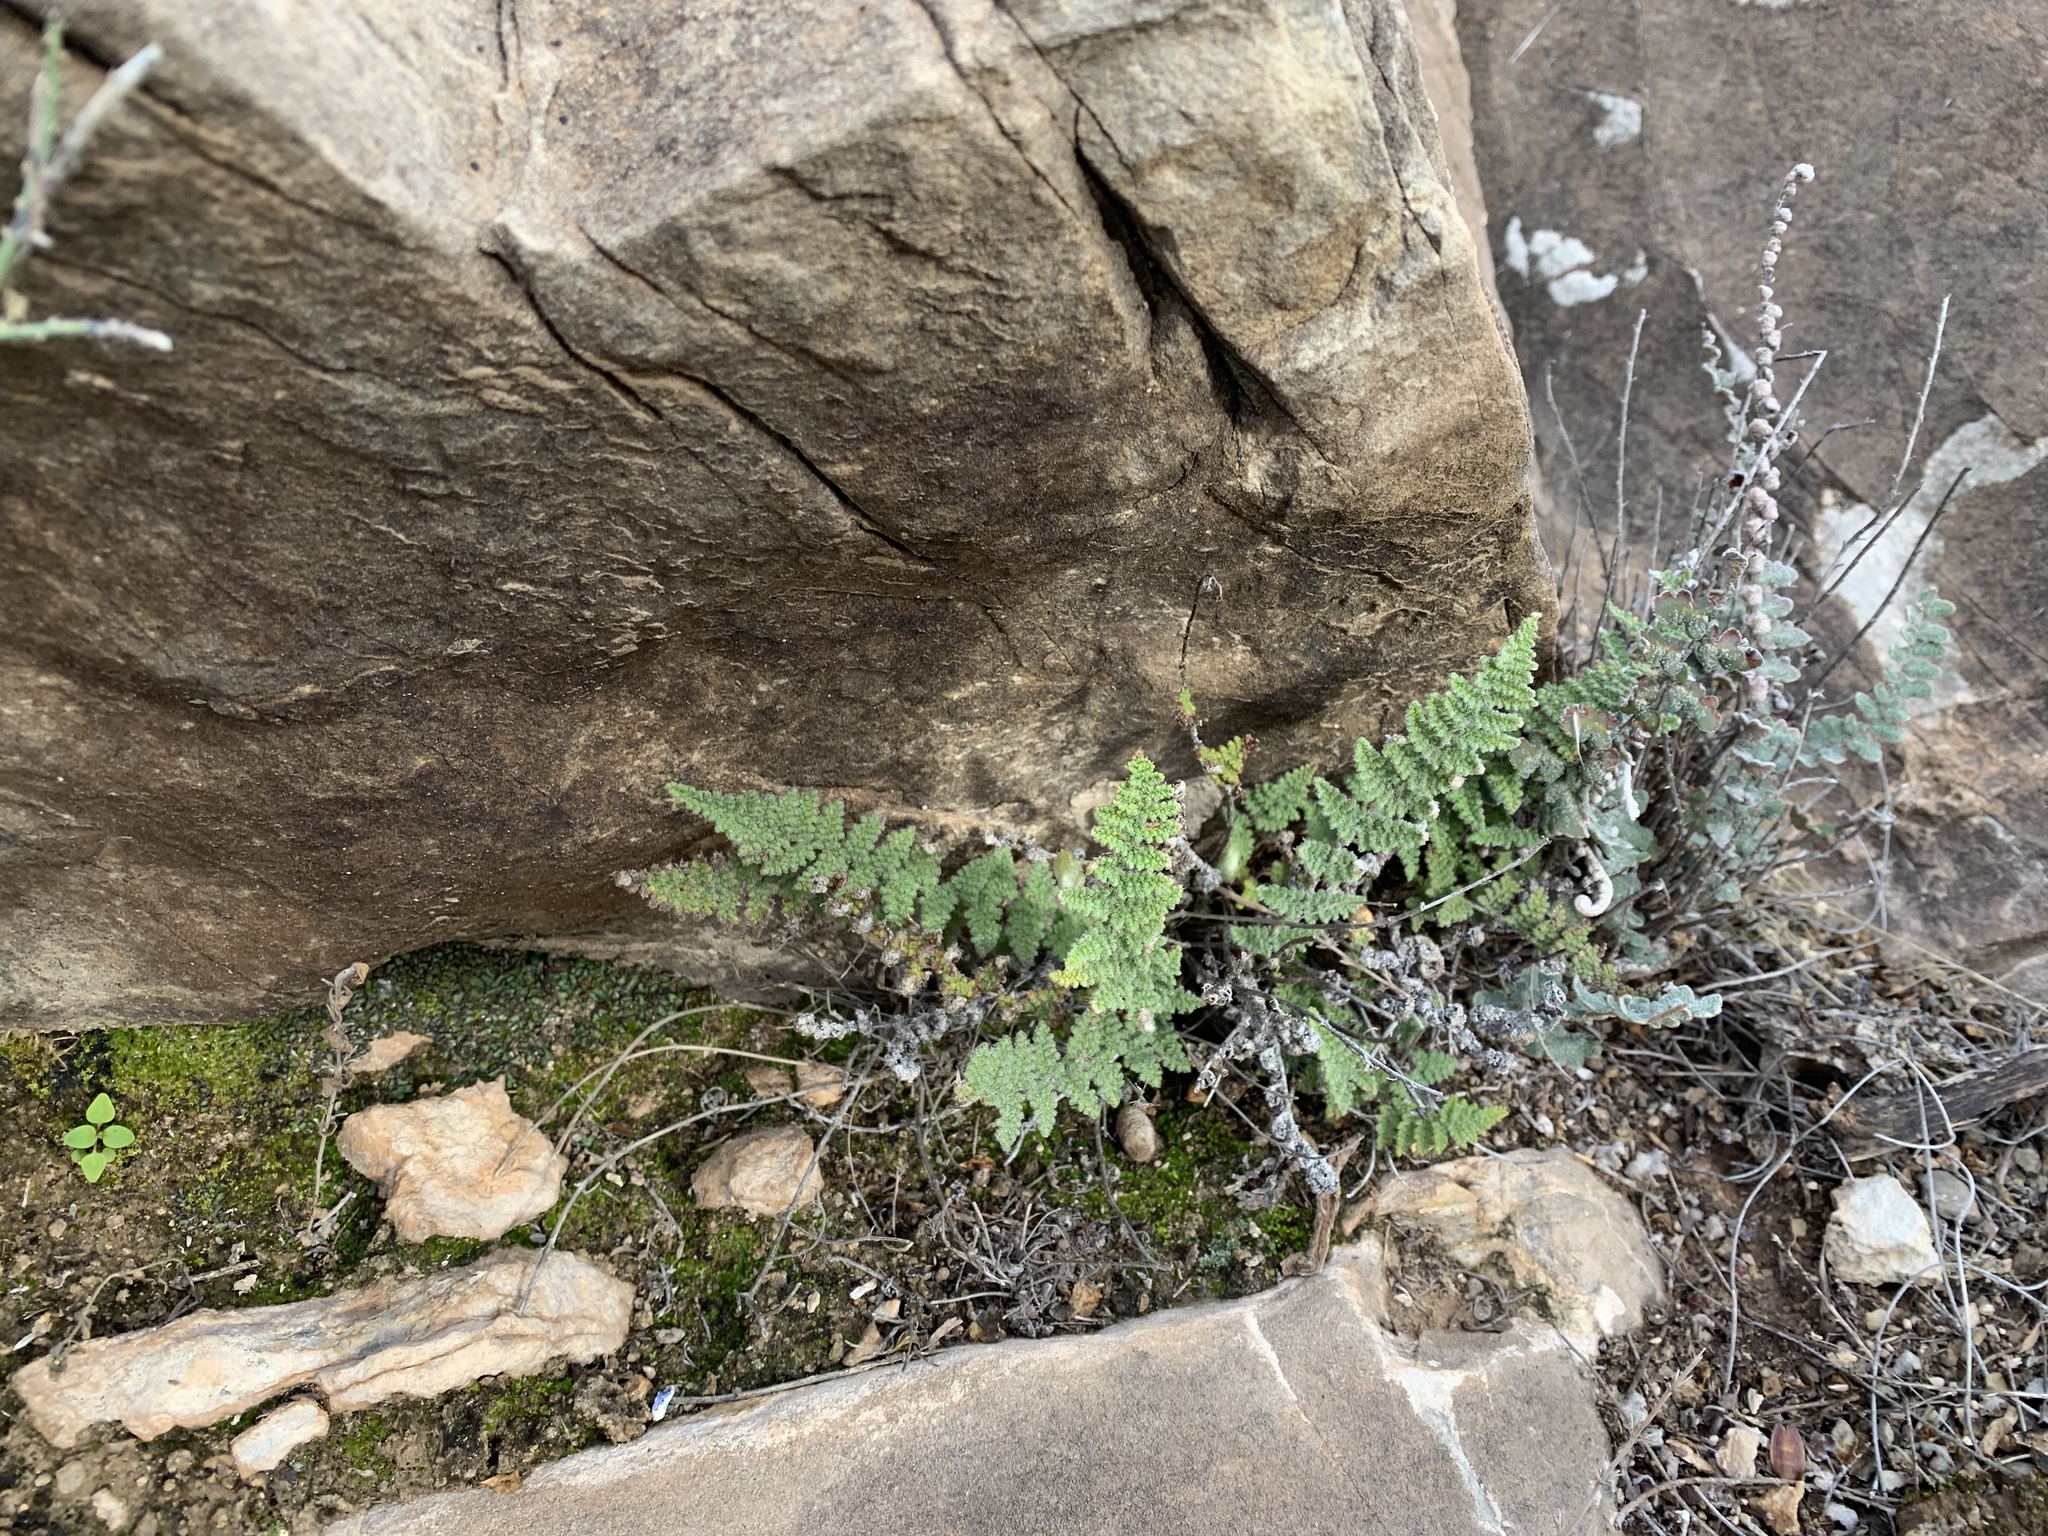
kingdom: Plantae
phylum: Tracheophyta
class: Polypodiopsida
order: Polypodiales
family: Pteridaceae
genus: Myriopteris
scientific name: Myriopteris windhamii
